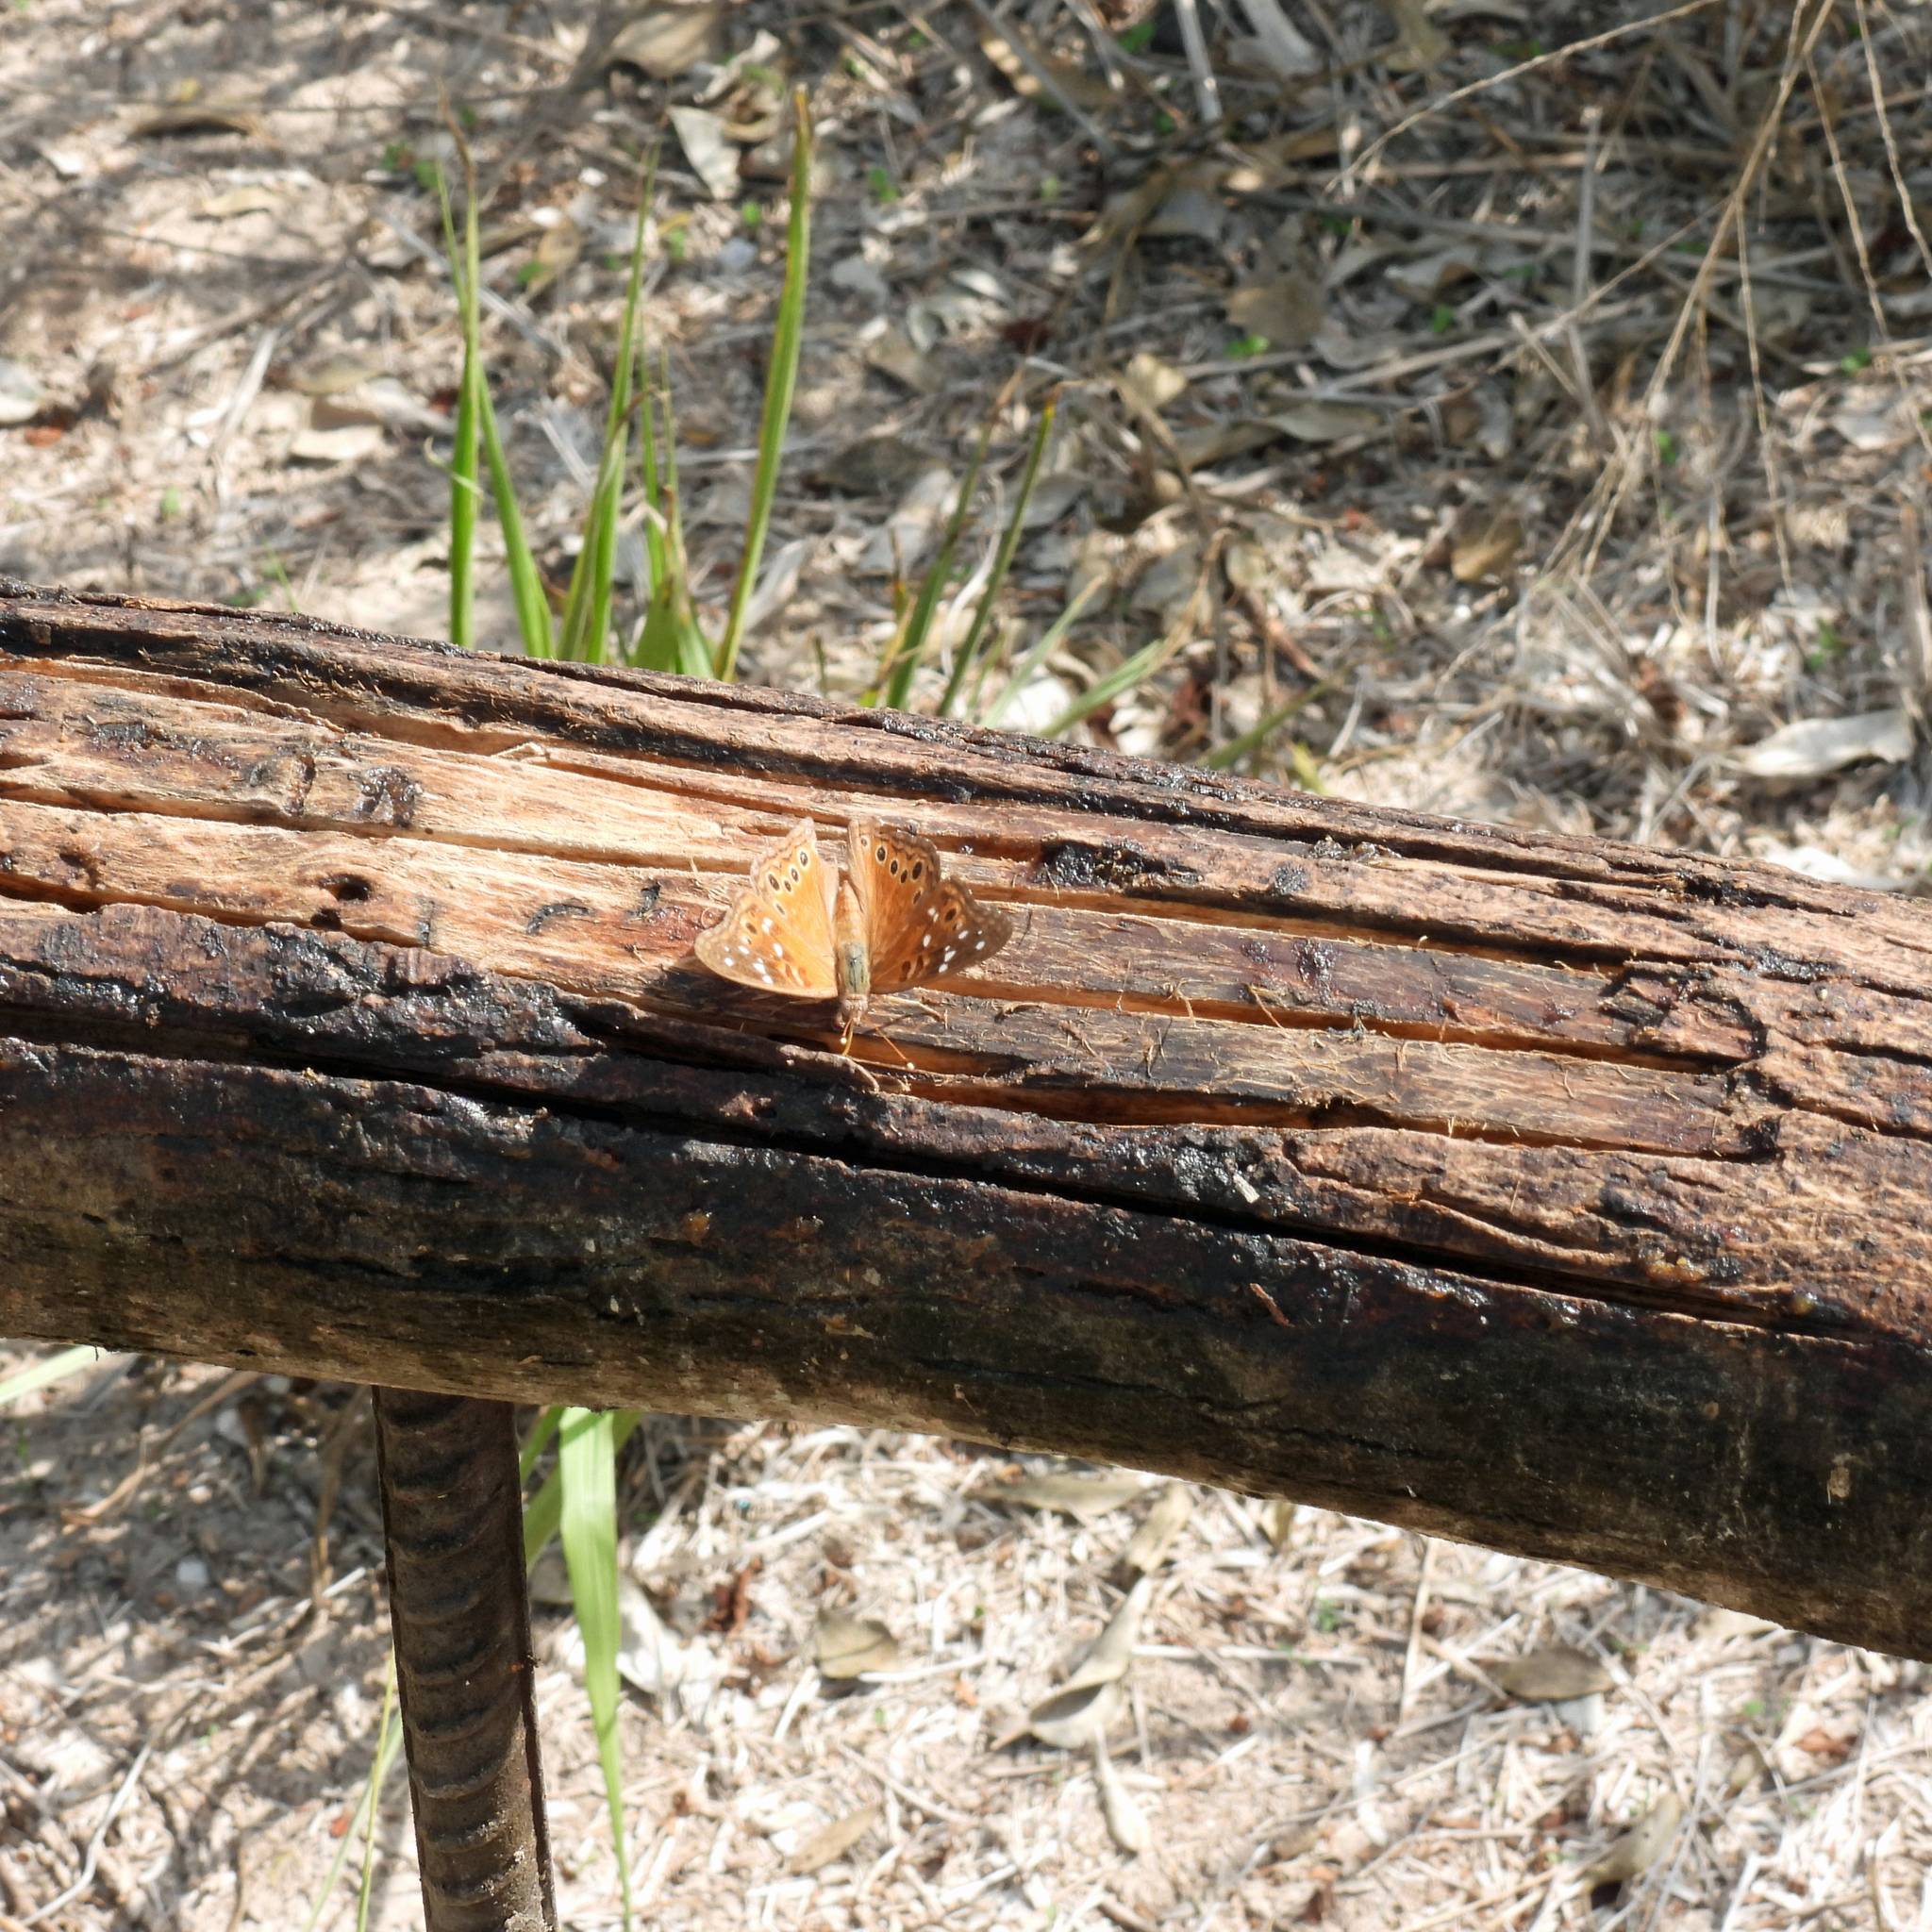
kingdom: Animalia
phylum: Arthropoda
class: Insecta
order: Lepidoptera
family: Nymphalidae
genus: Asterocampa
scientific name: Asterocampa leilia
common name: Empress leilia
